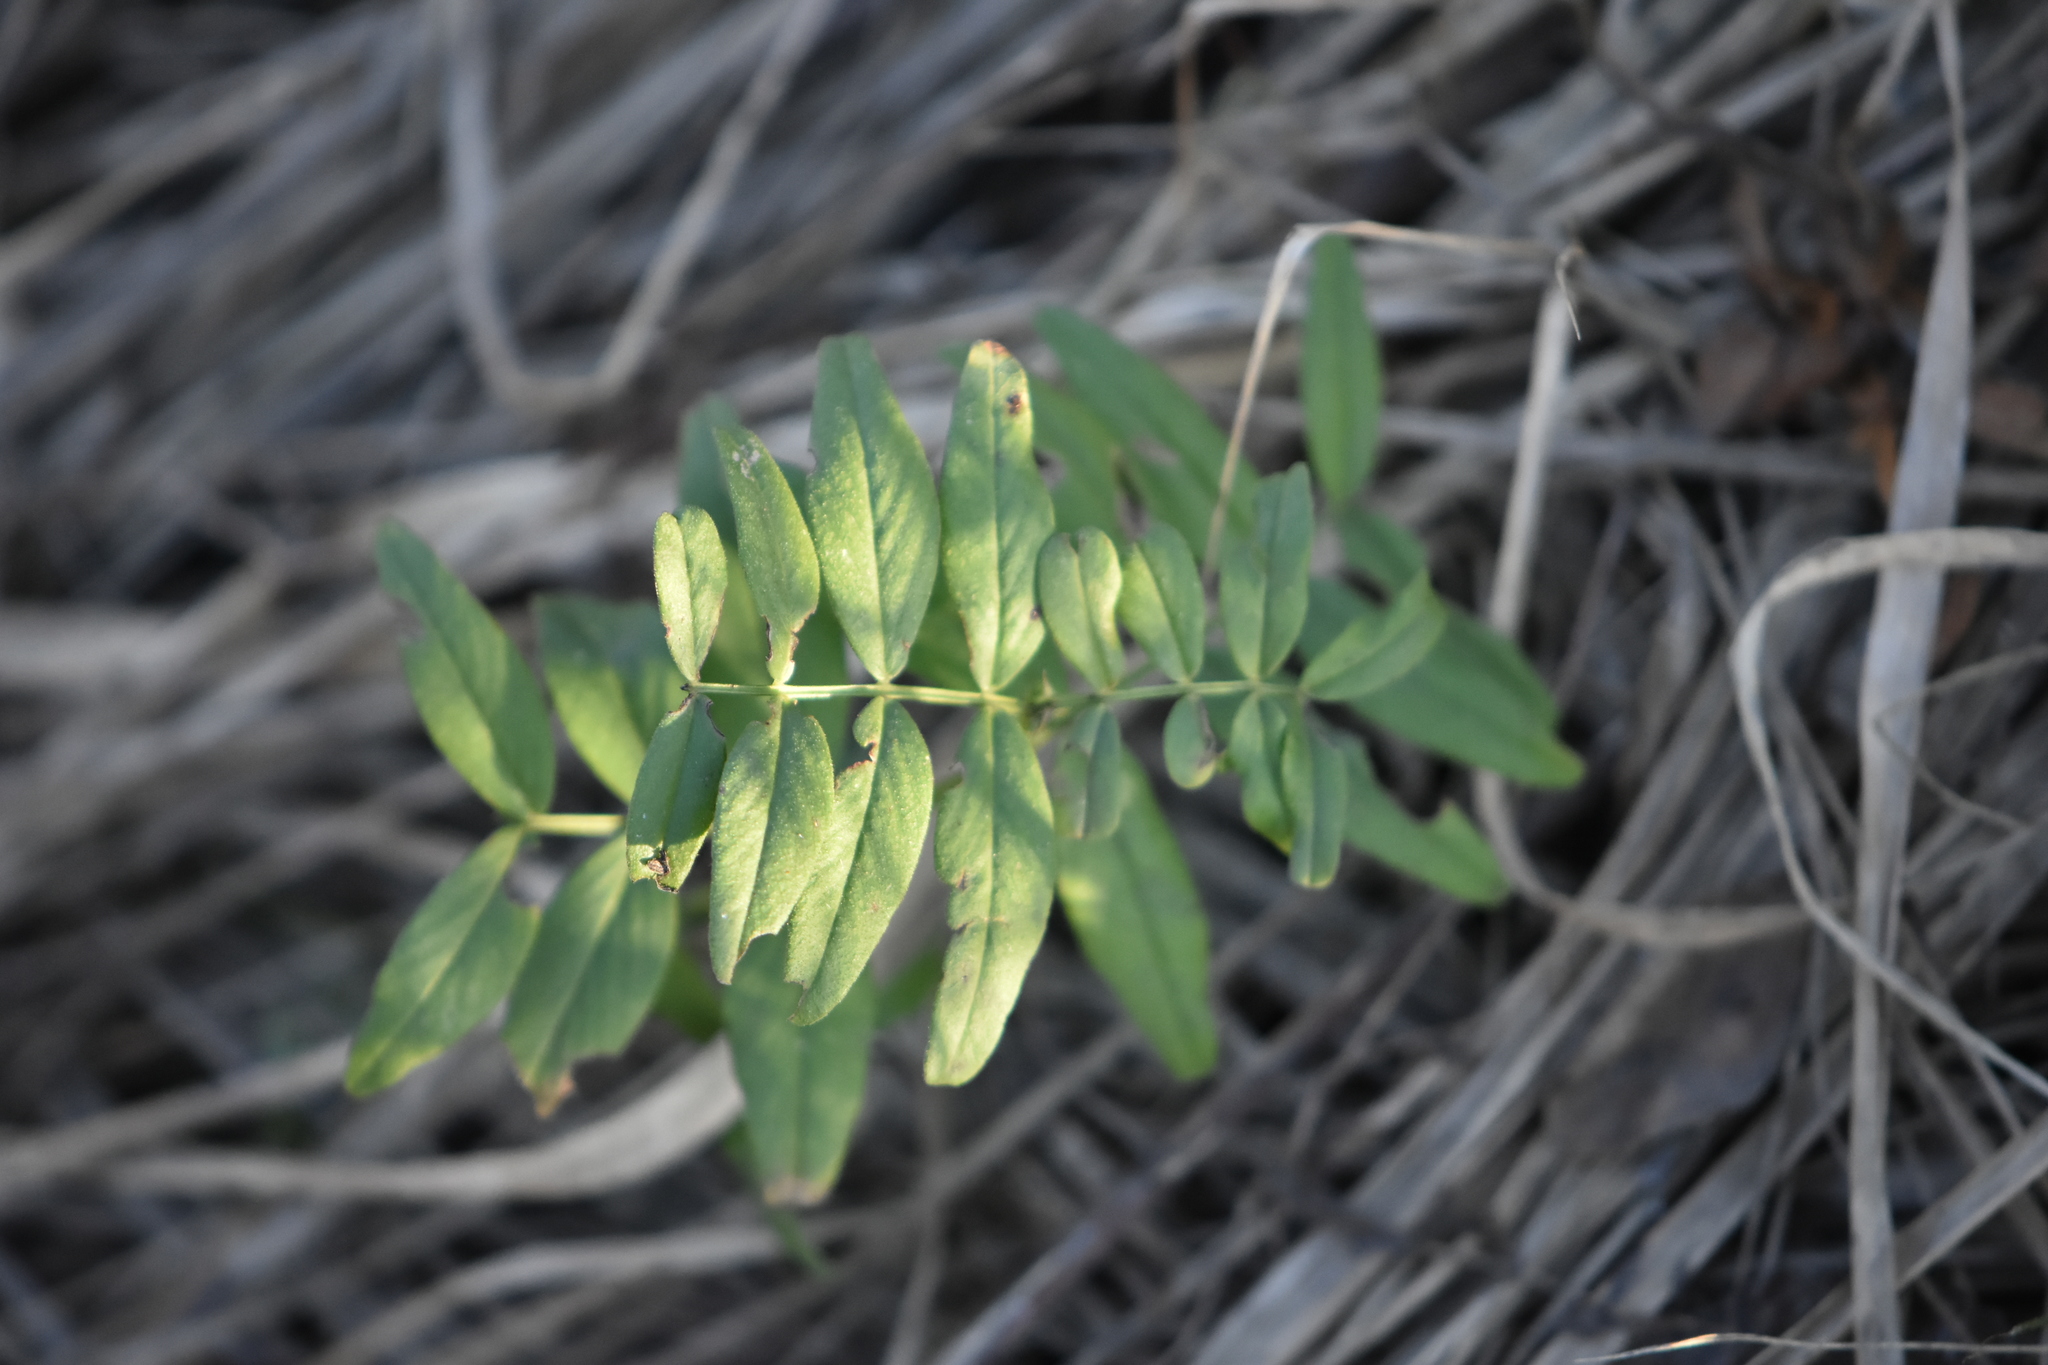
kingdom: Plantae
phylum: Tracheophyta
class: Magnoliopsida
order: Fabales
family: Fabaceae
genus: Vicia
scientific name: Vicia sepium
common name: Bush vetch
